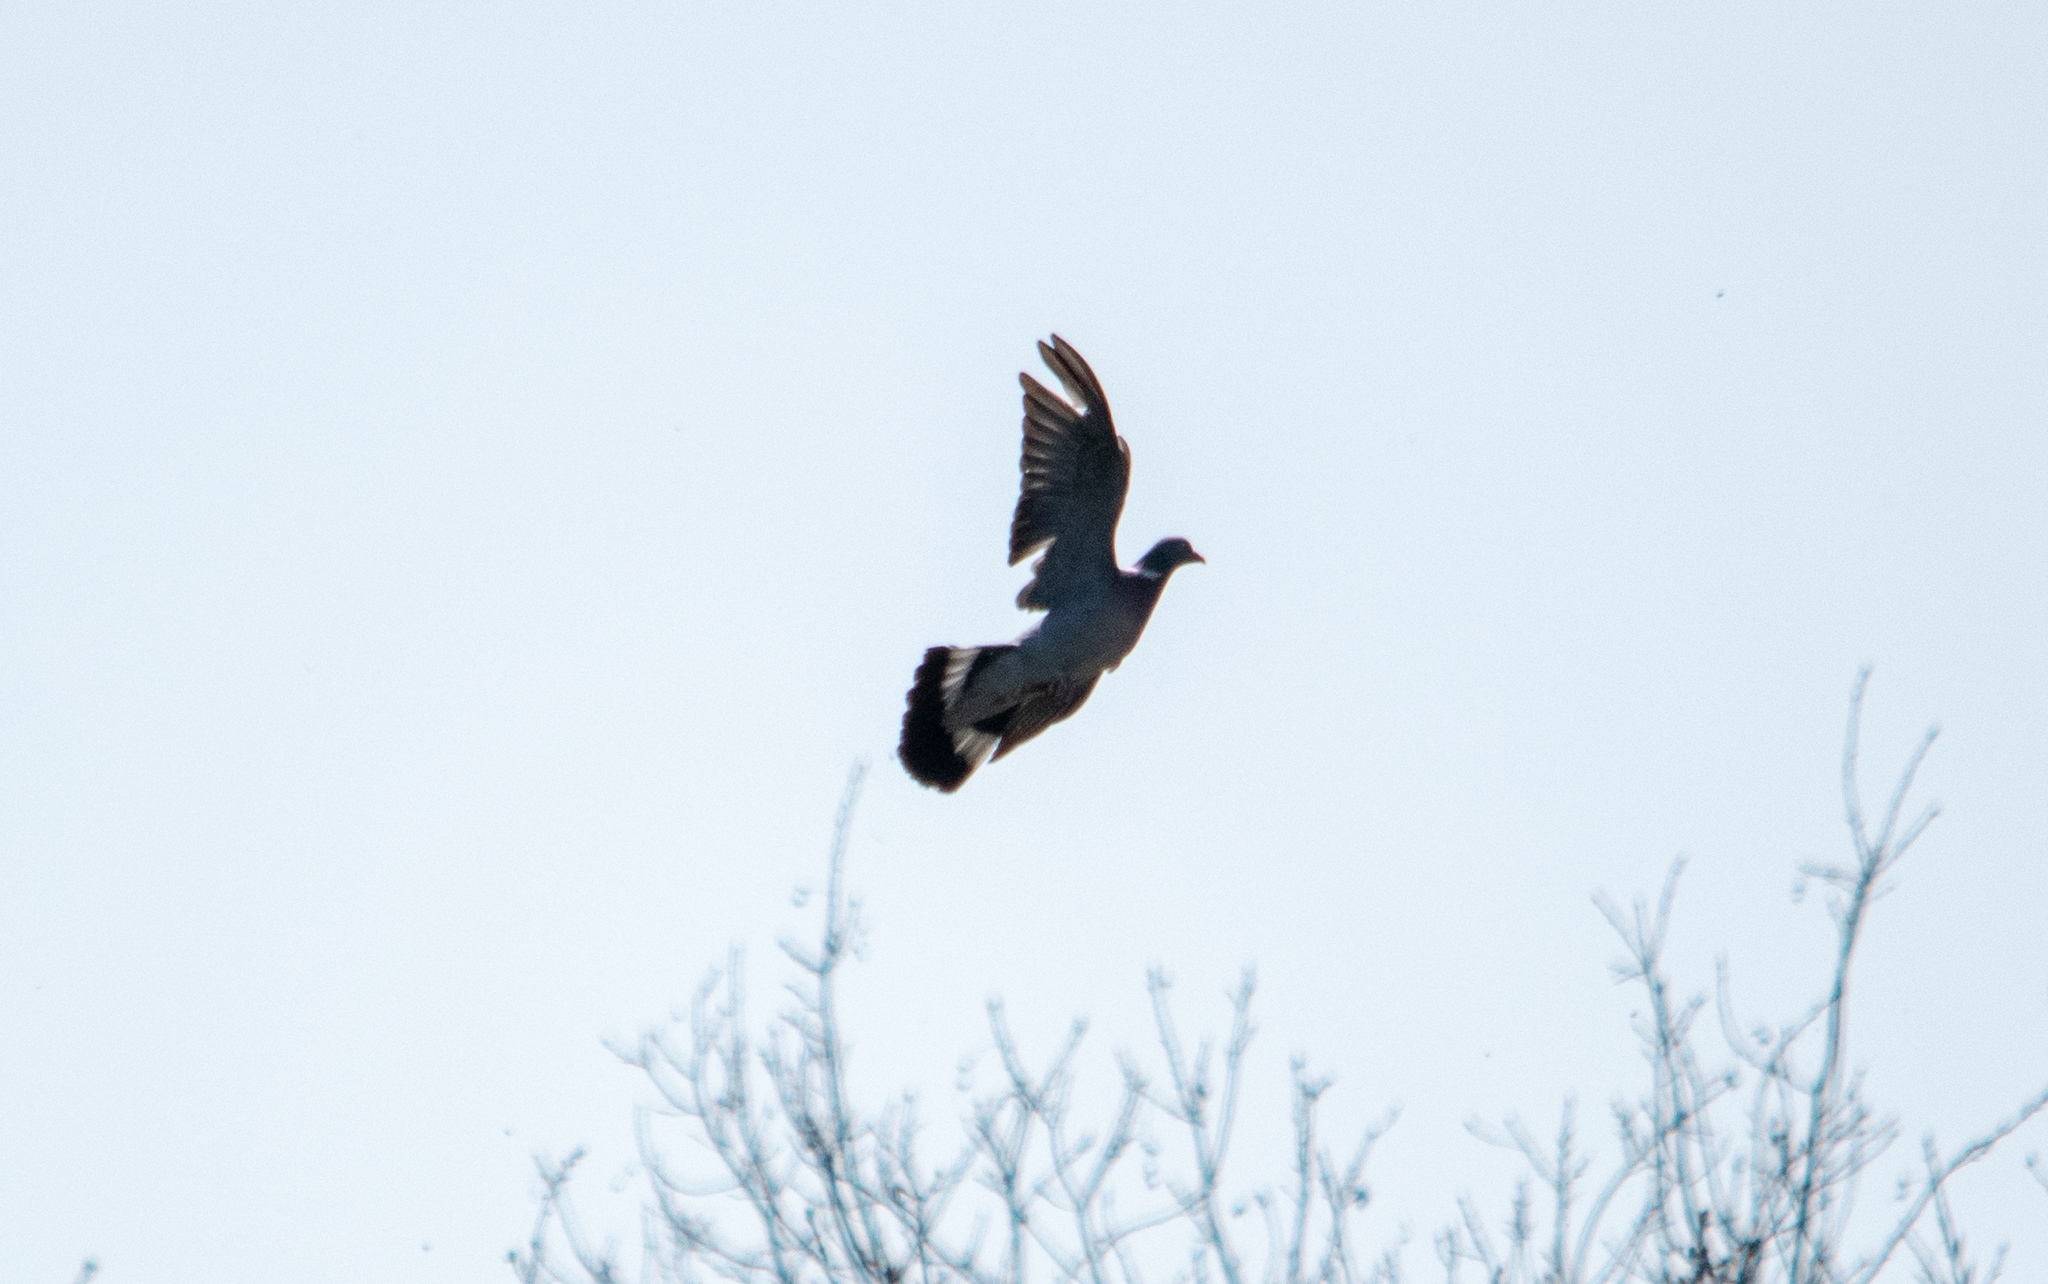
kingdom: Animalia
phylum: Chordata
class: Aves
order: Columbiformes
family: Columbidae
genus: Columba
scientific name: Columba palumbus
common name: Common wood pigeon
